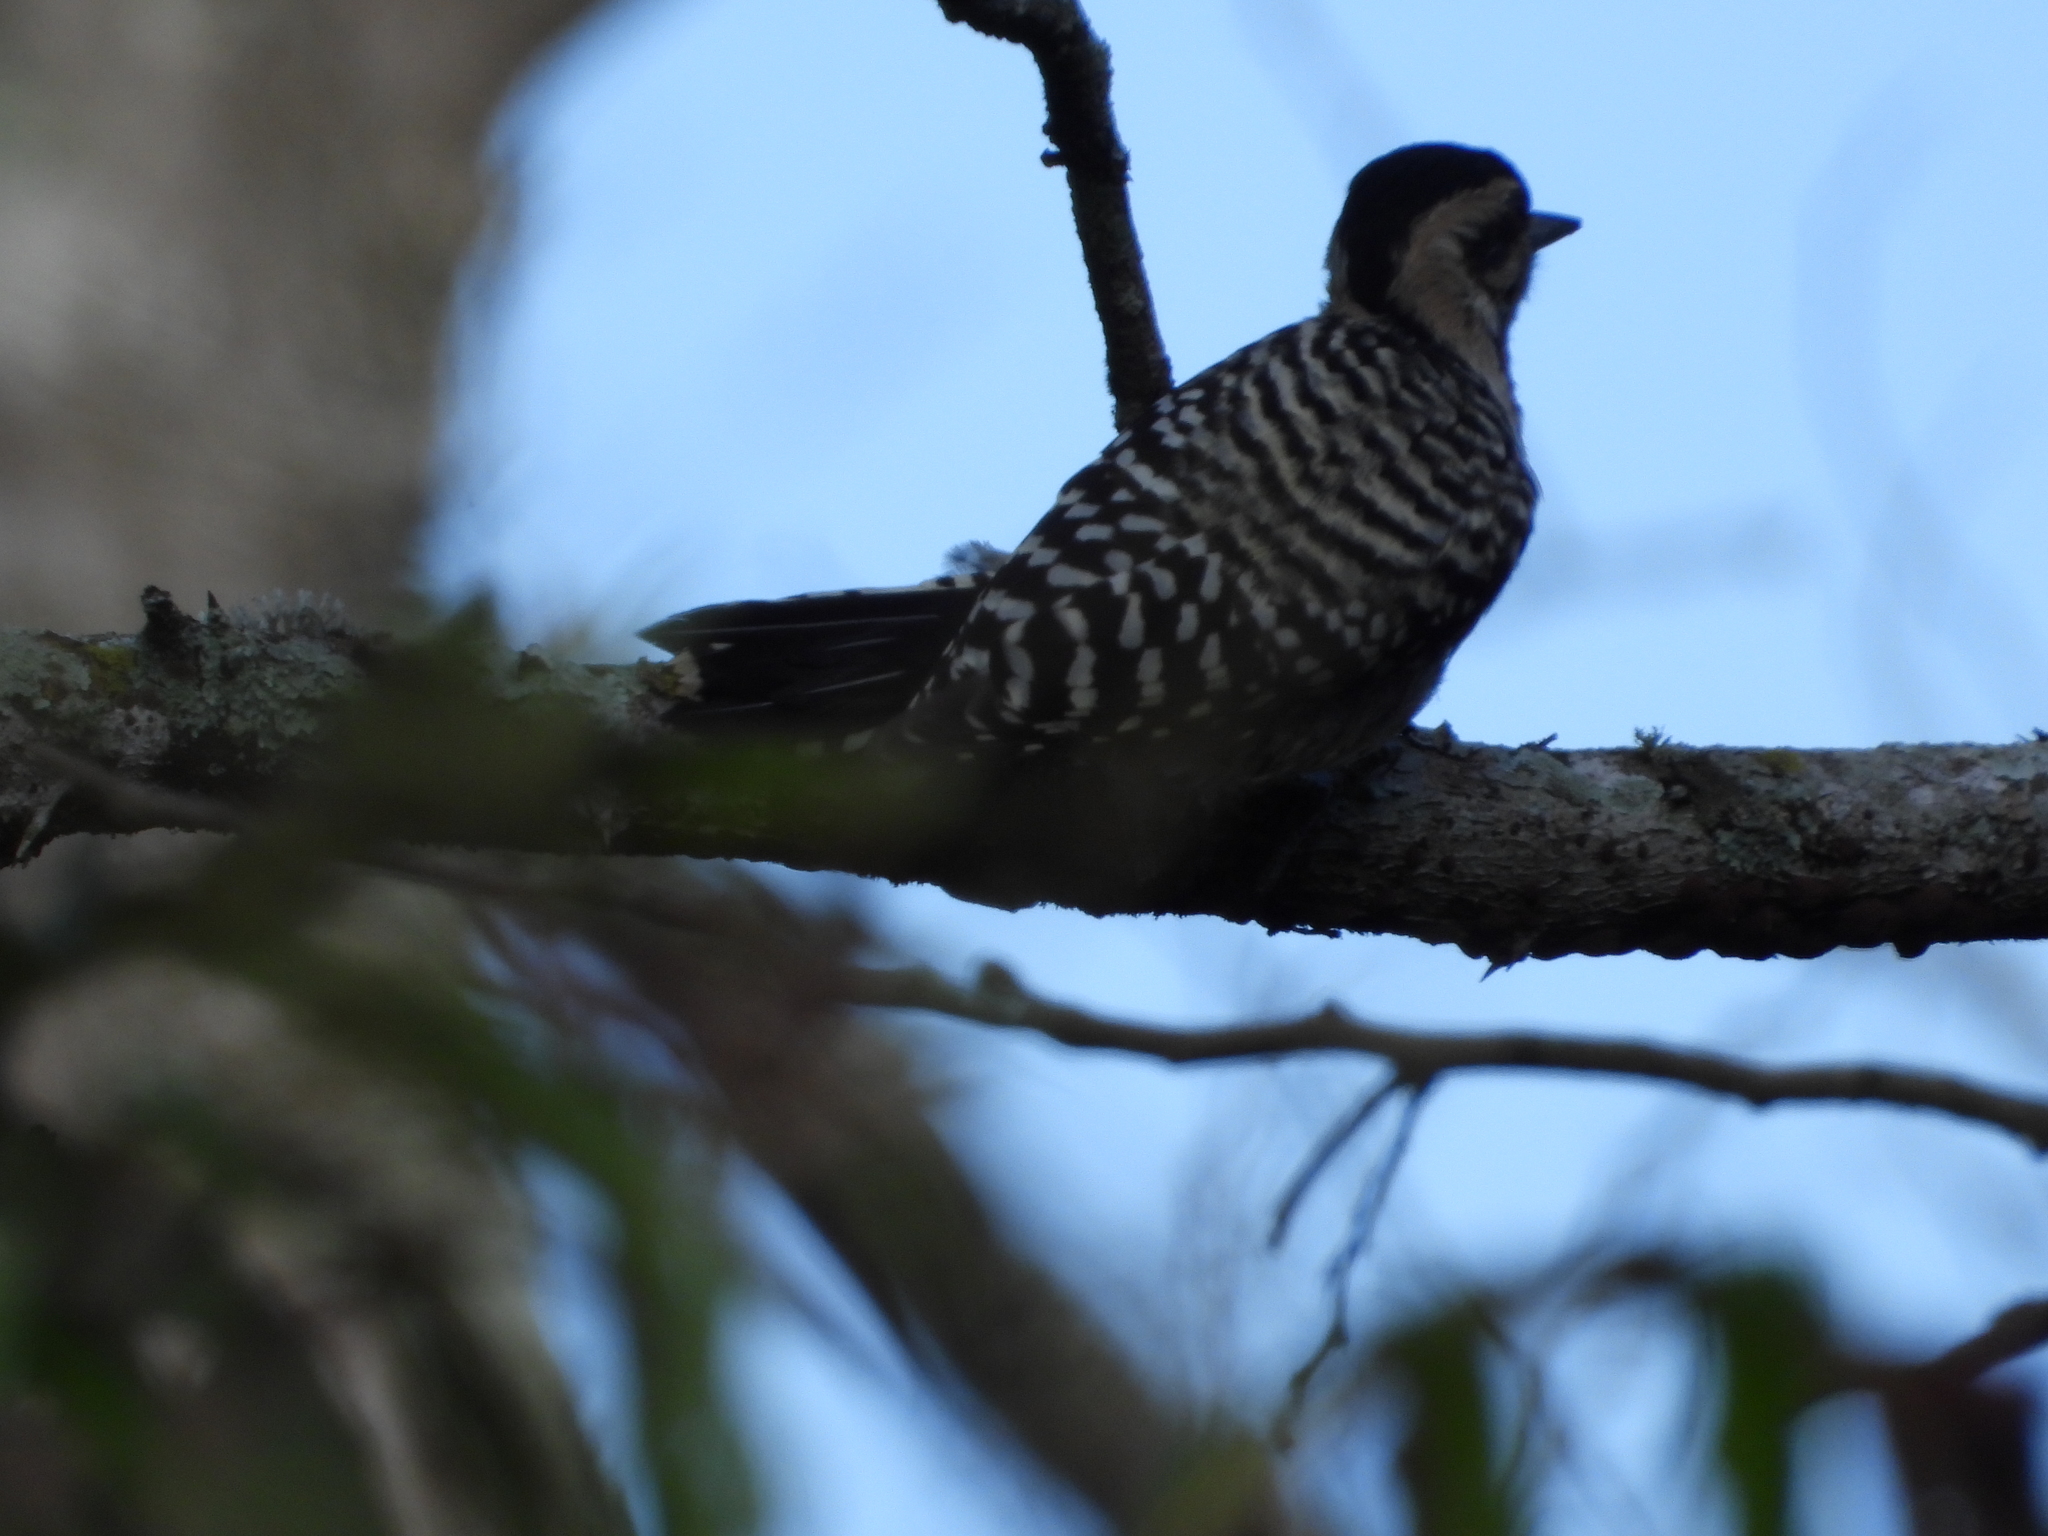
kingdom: Animalia
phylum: Chordata
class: Aves
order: Piciformes
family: Picidae
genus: Dryobates
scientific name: Dryobates scalaris
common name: Ladder-backed woodpecker
